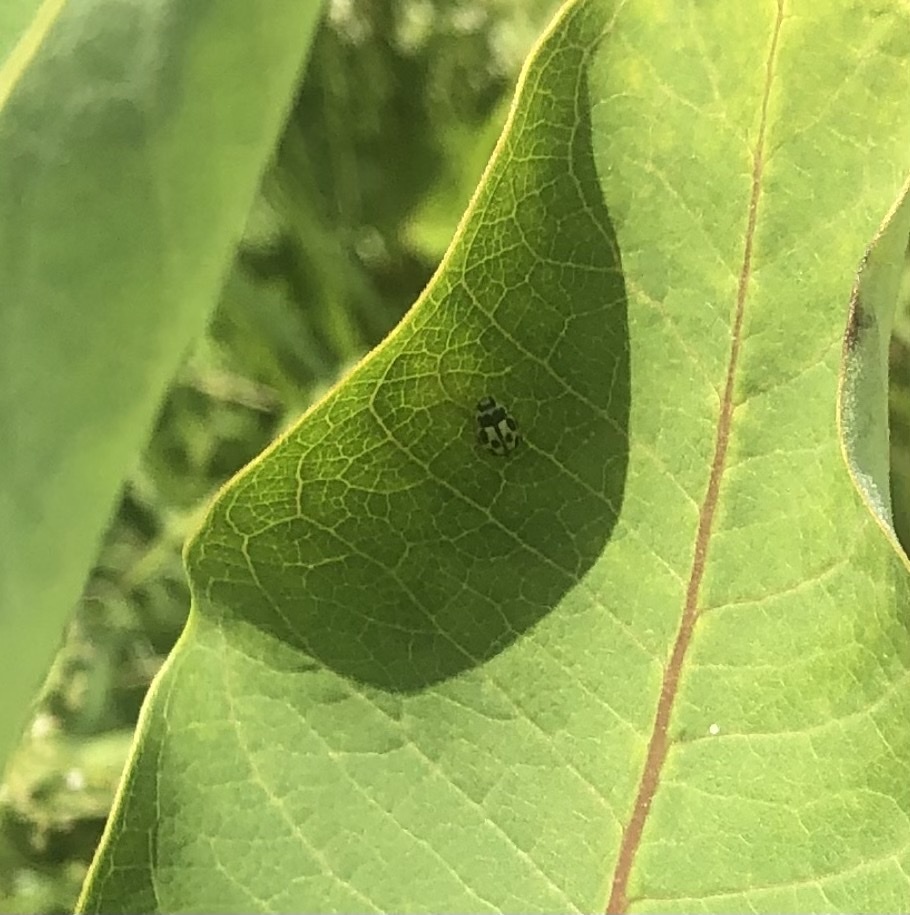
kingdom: Animalia
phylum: Arthropoda
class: Insecta
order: Coleoptera
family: Coccinellidae
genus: Propylaea
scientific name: Propylaea quatuordecimpunctata
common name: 14-spotted ladybird beetle
